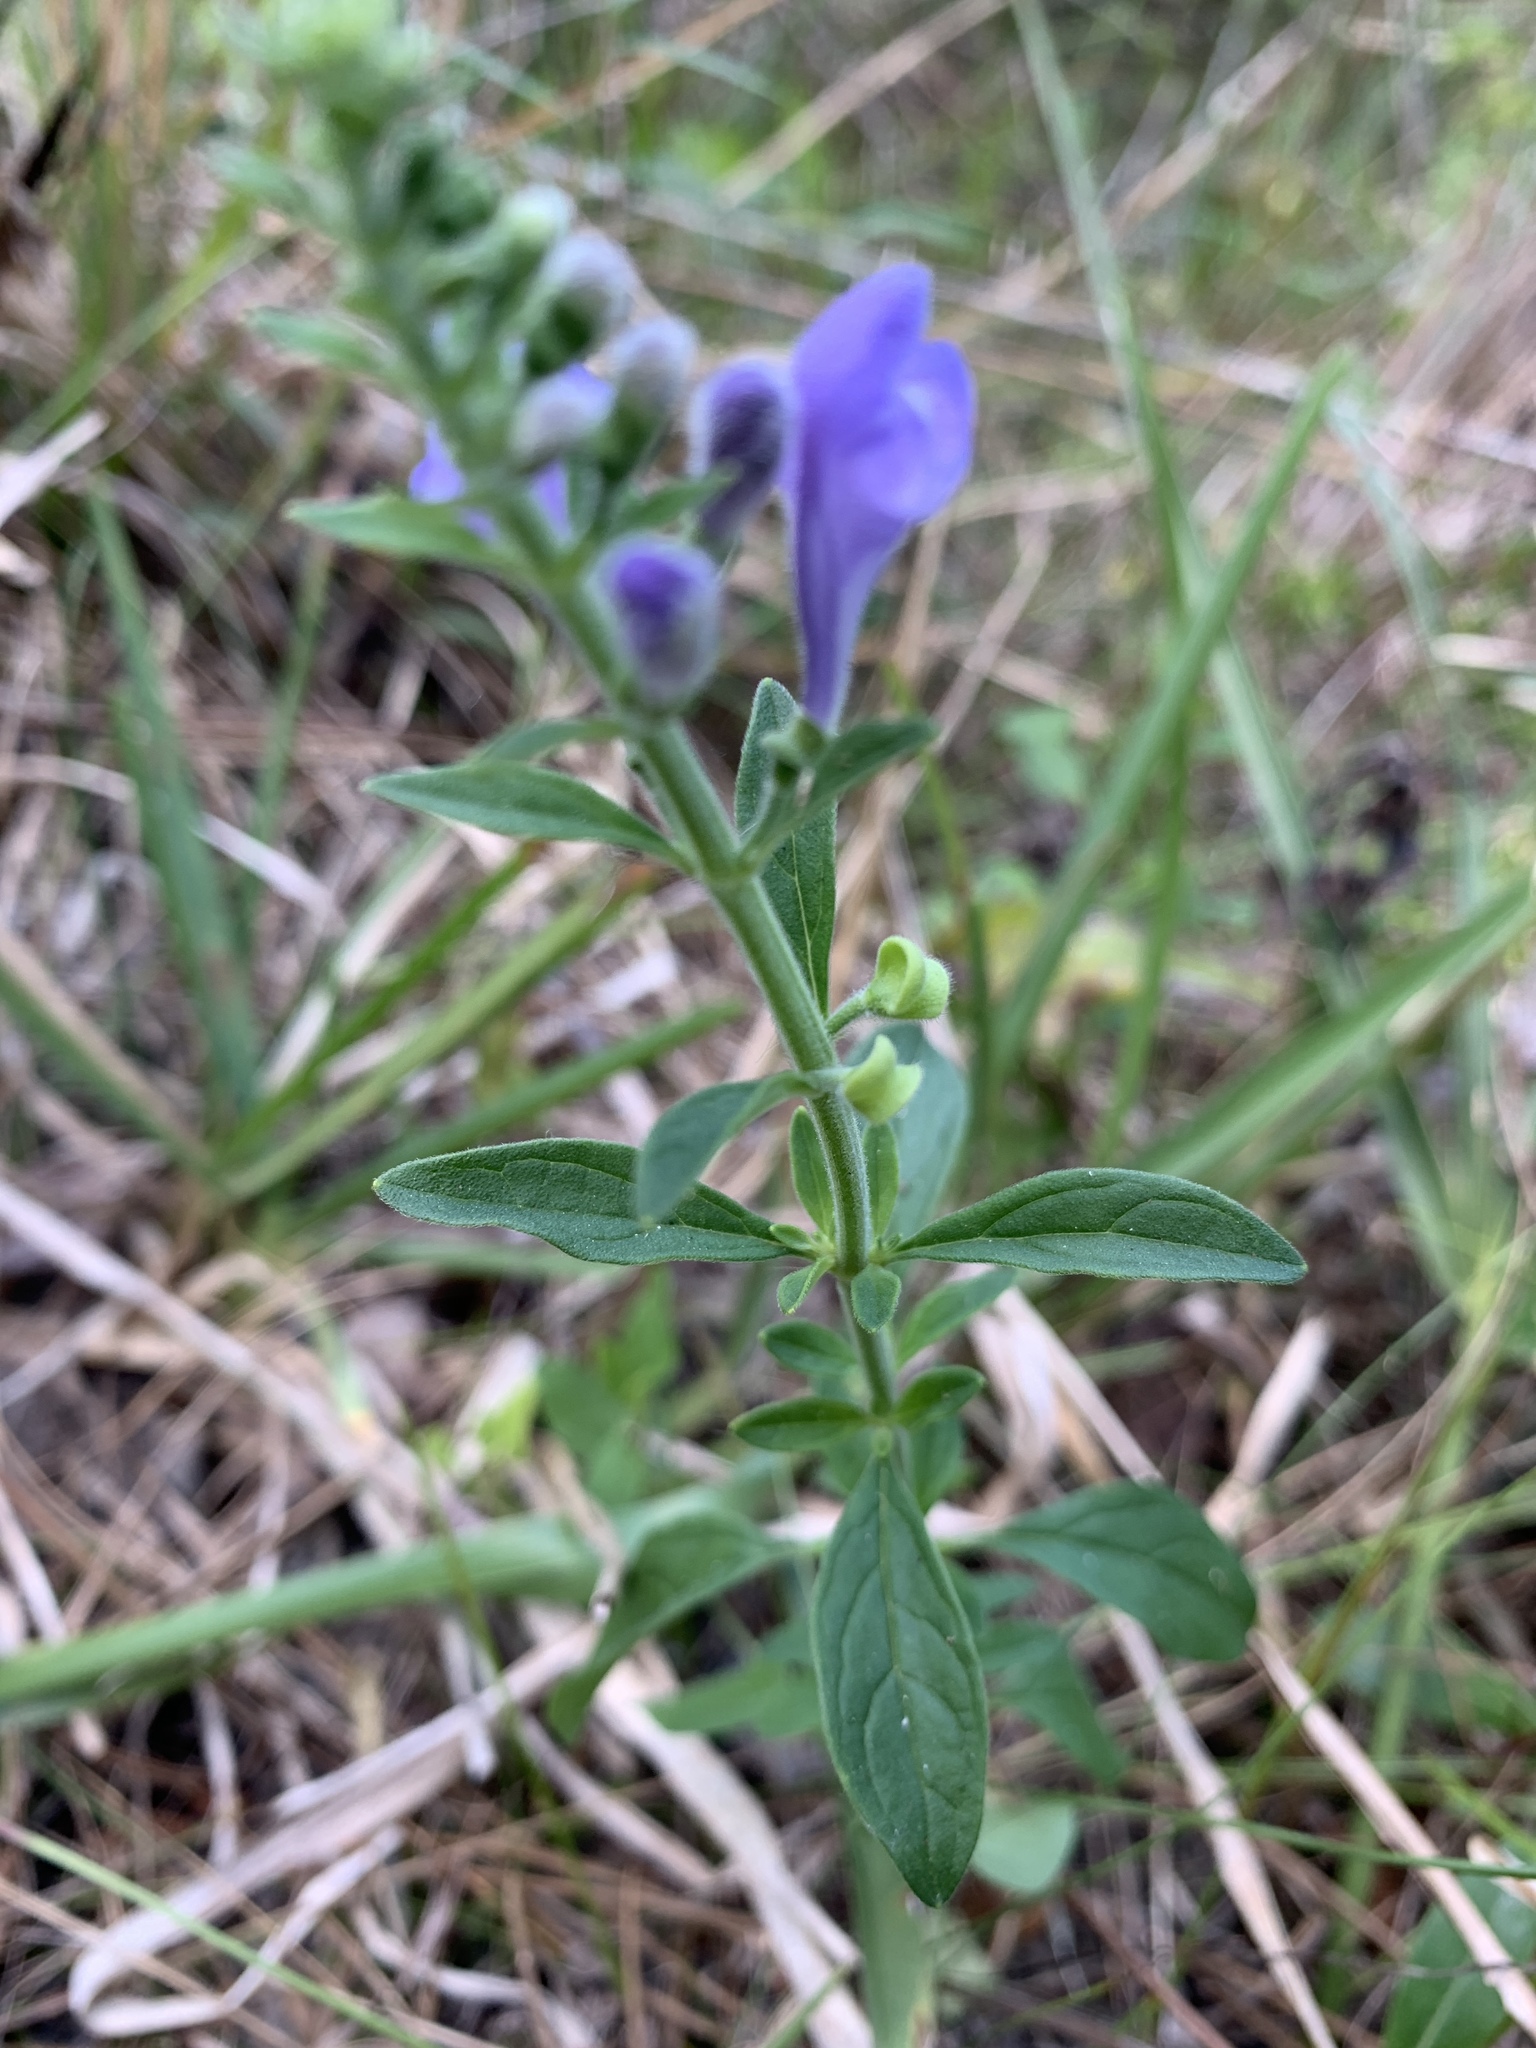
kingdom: Plantae
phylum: Tracheophyta
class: Magnoliopsida
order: Lamiales
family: Lamiaceae
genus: Scutellaria
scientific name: Scutellaria integrifolia
